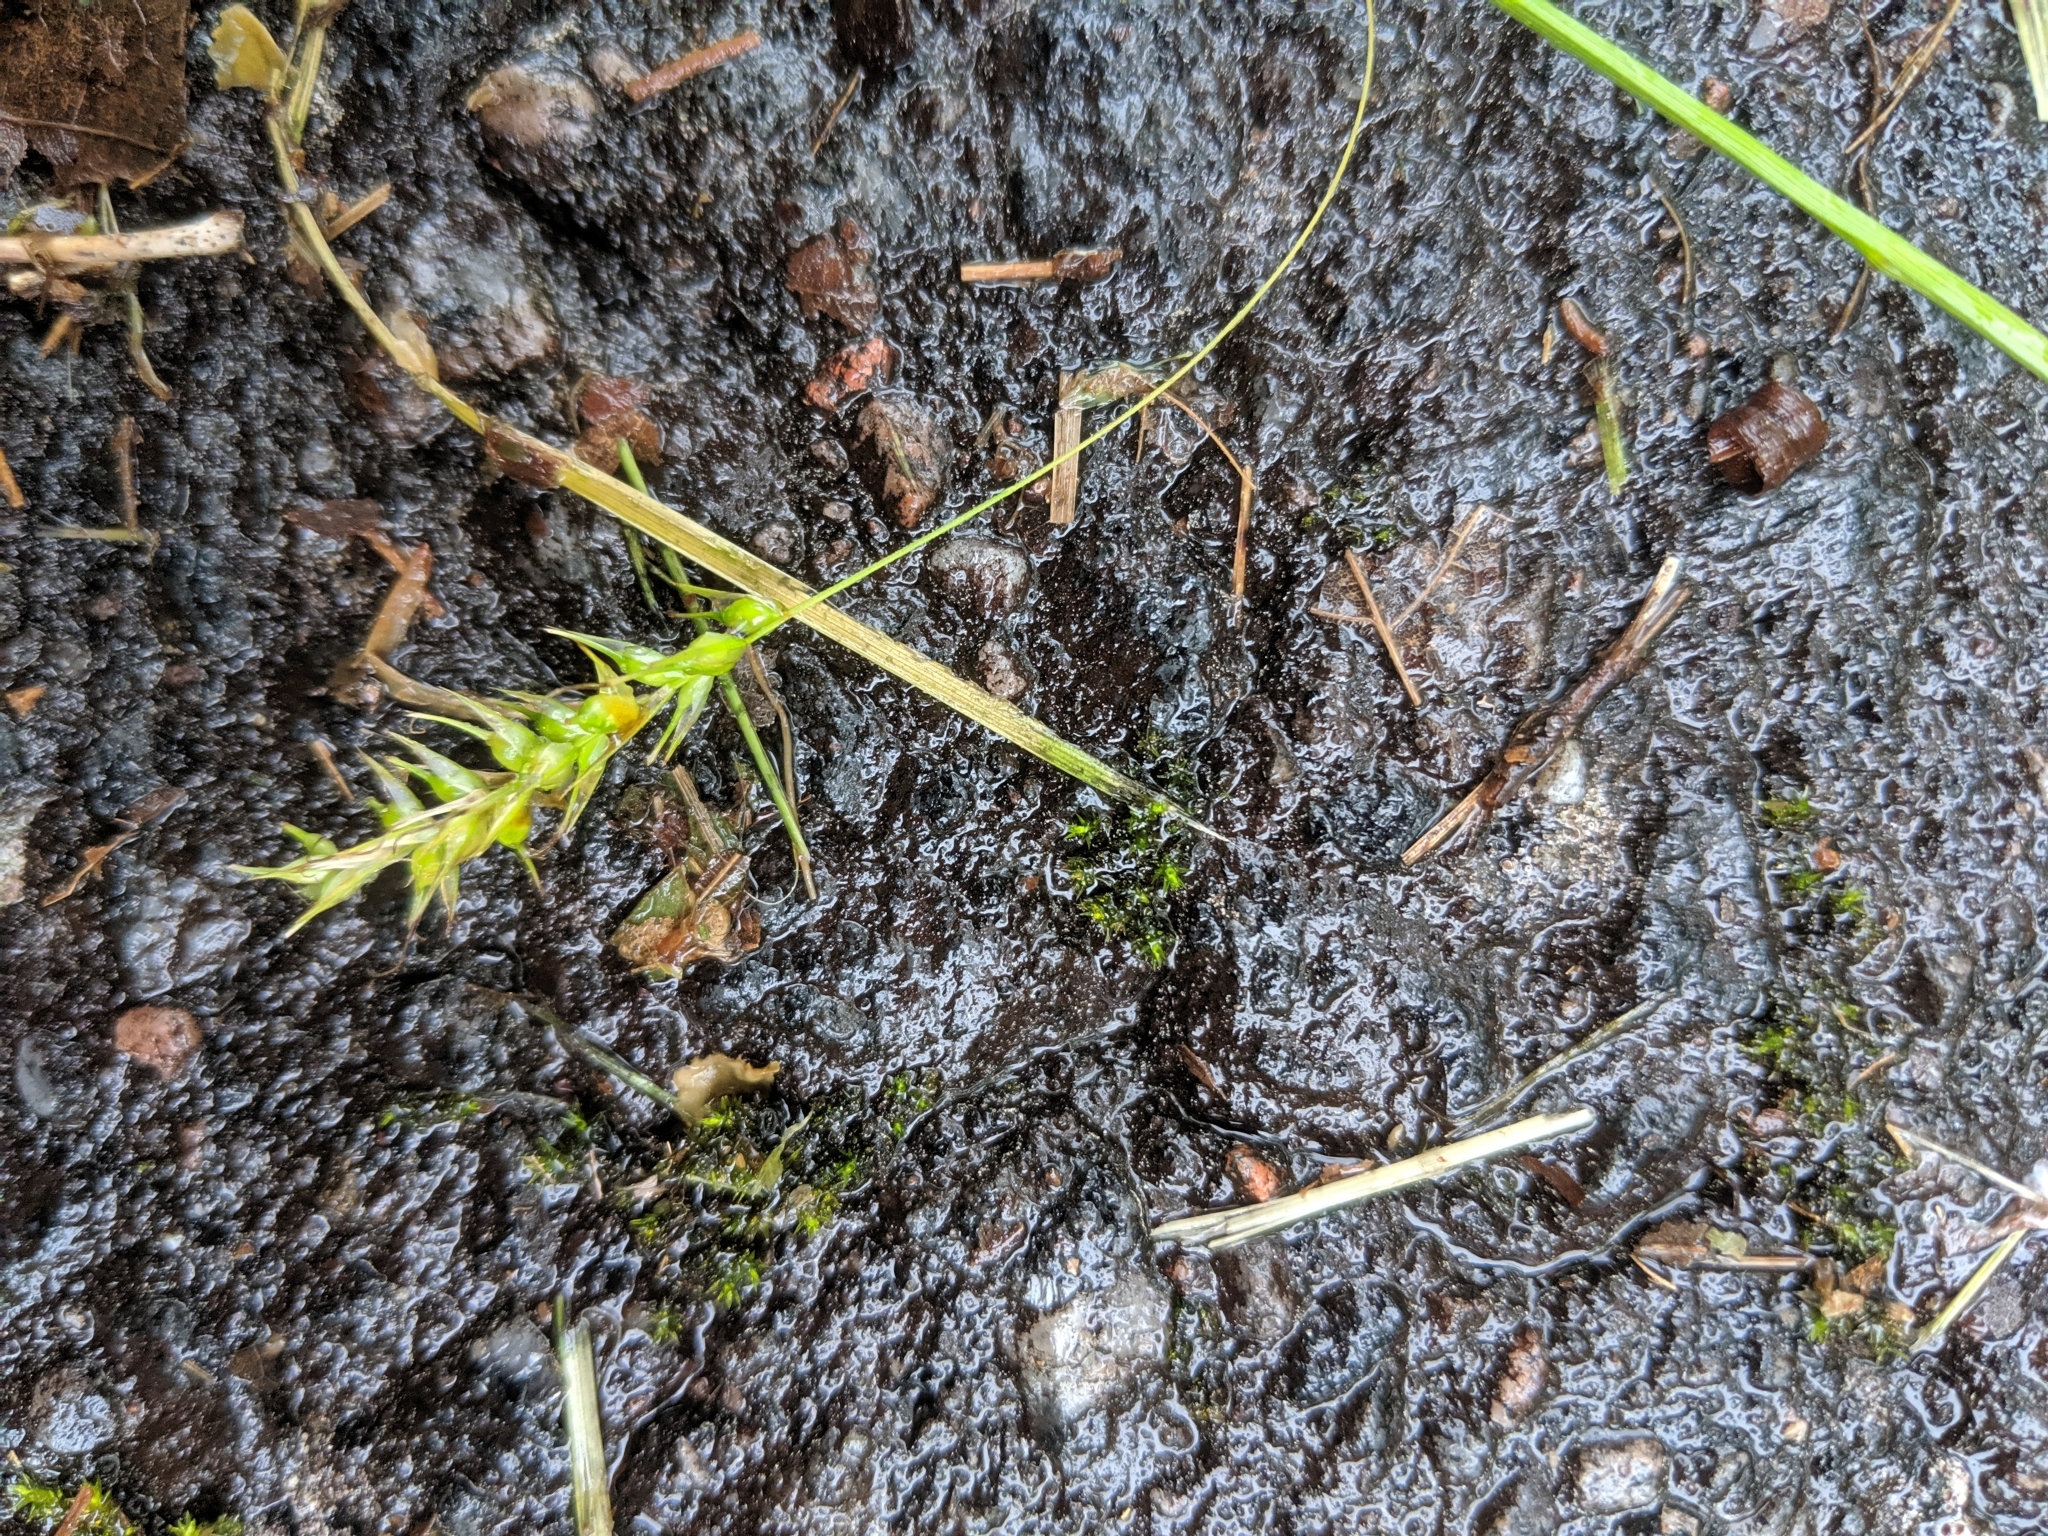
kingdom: Plantae
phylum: Tracheophyta
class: Liliopsida
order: Poales
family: Cyperaceae
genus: Carex
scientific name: Carex sprengelii
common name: Long-beaked sedge
